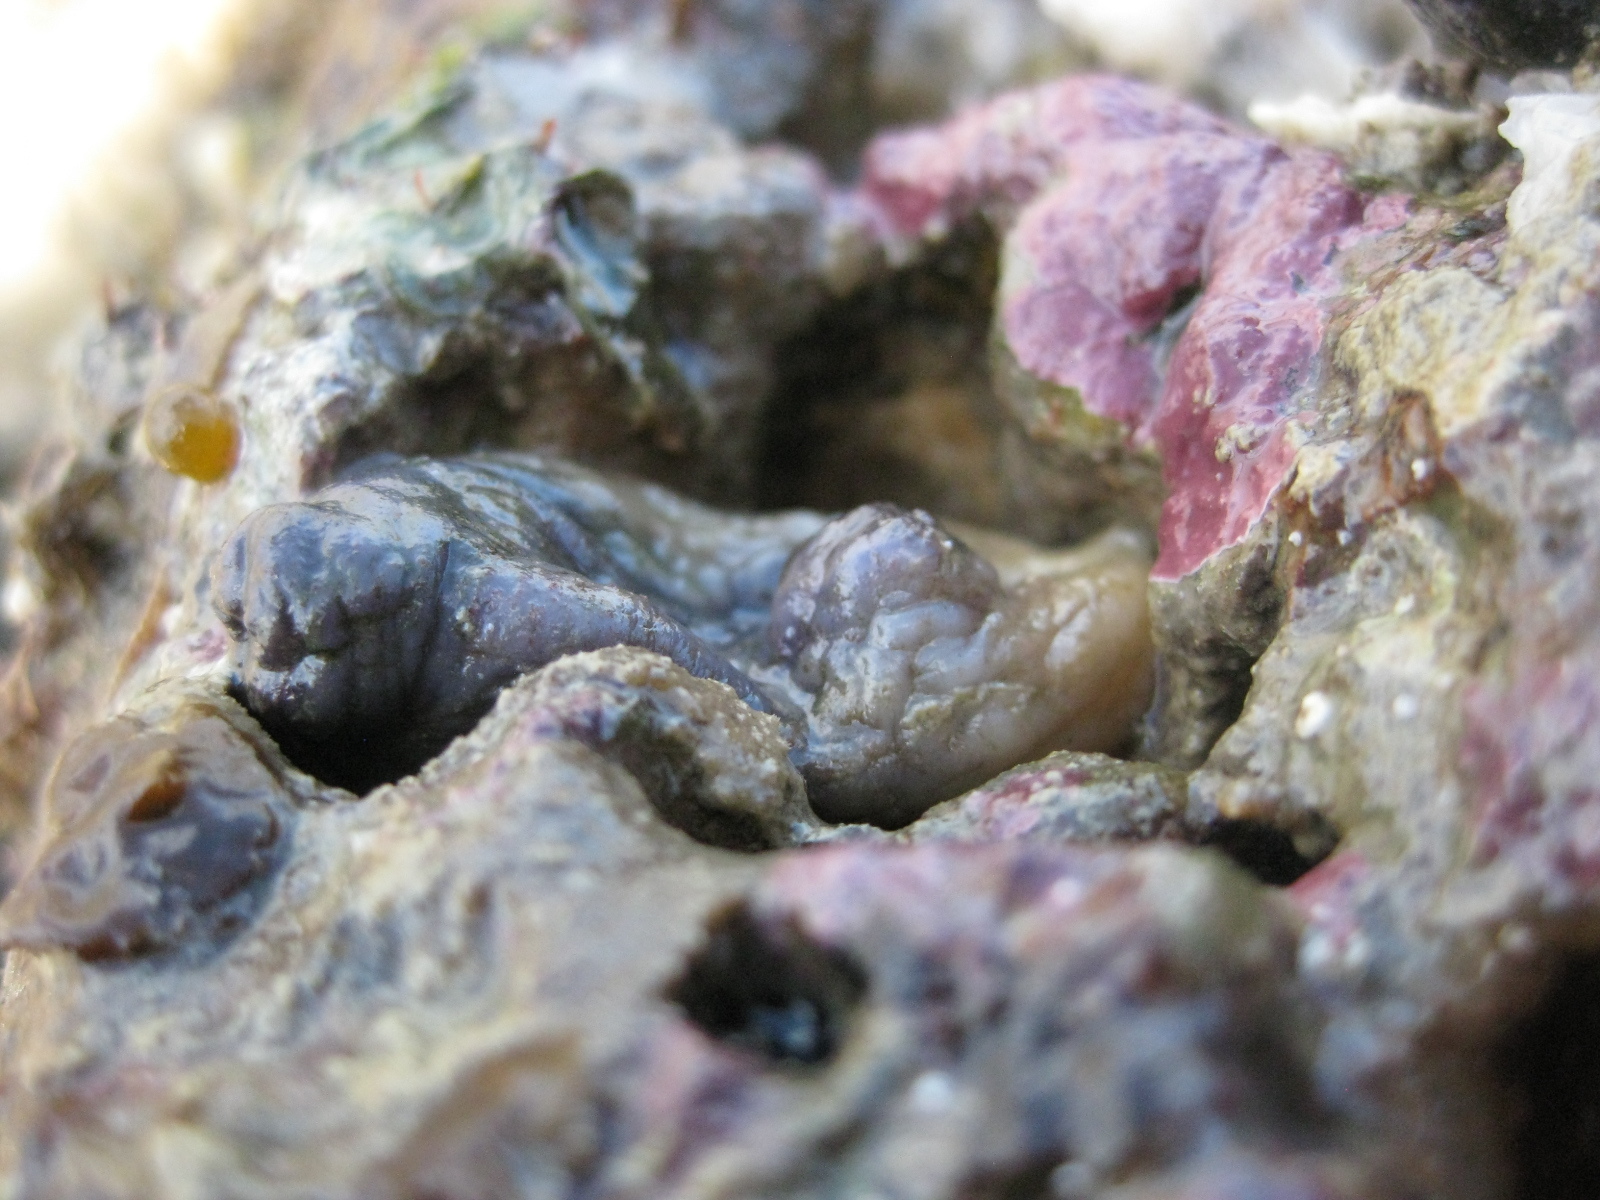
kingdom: Animalia
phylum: Chordata
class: Ascidiacea
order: Stolidobranchia
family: Styelidae
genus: Asterocarpa
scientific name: Asterocarpa coerulea
